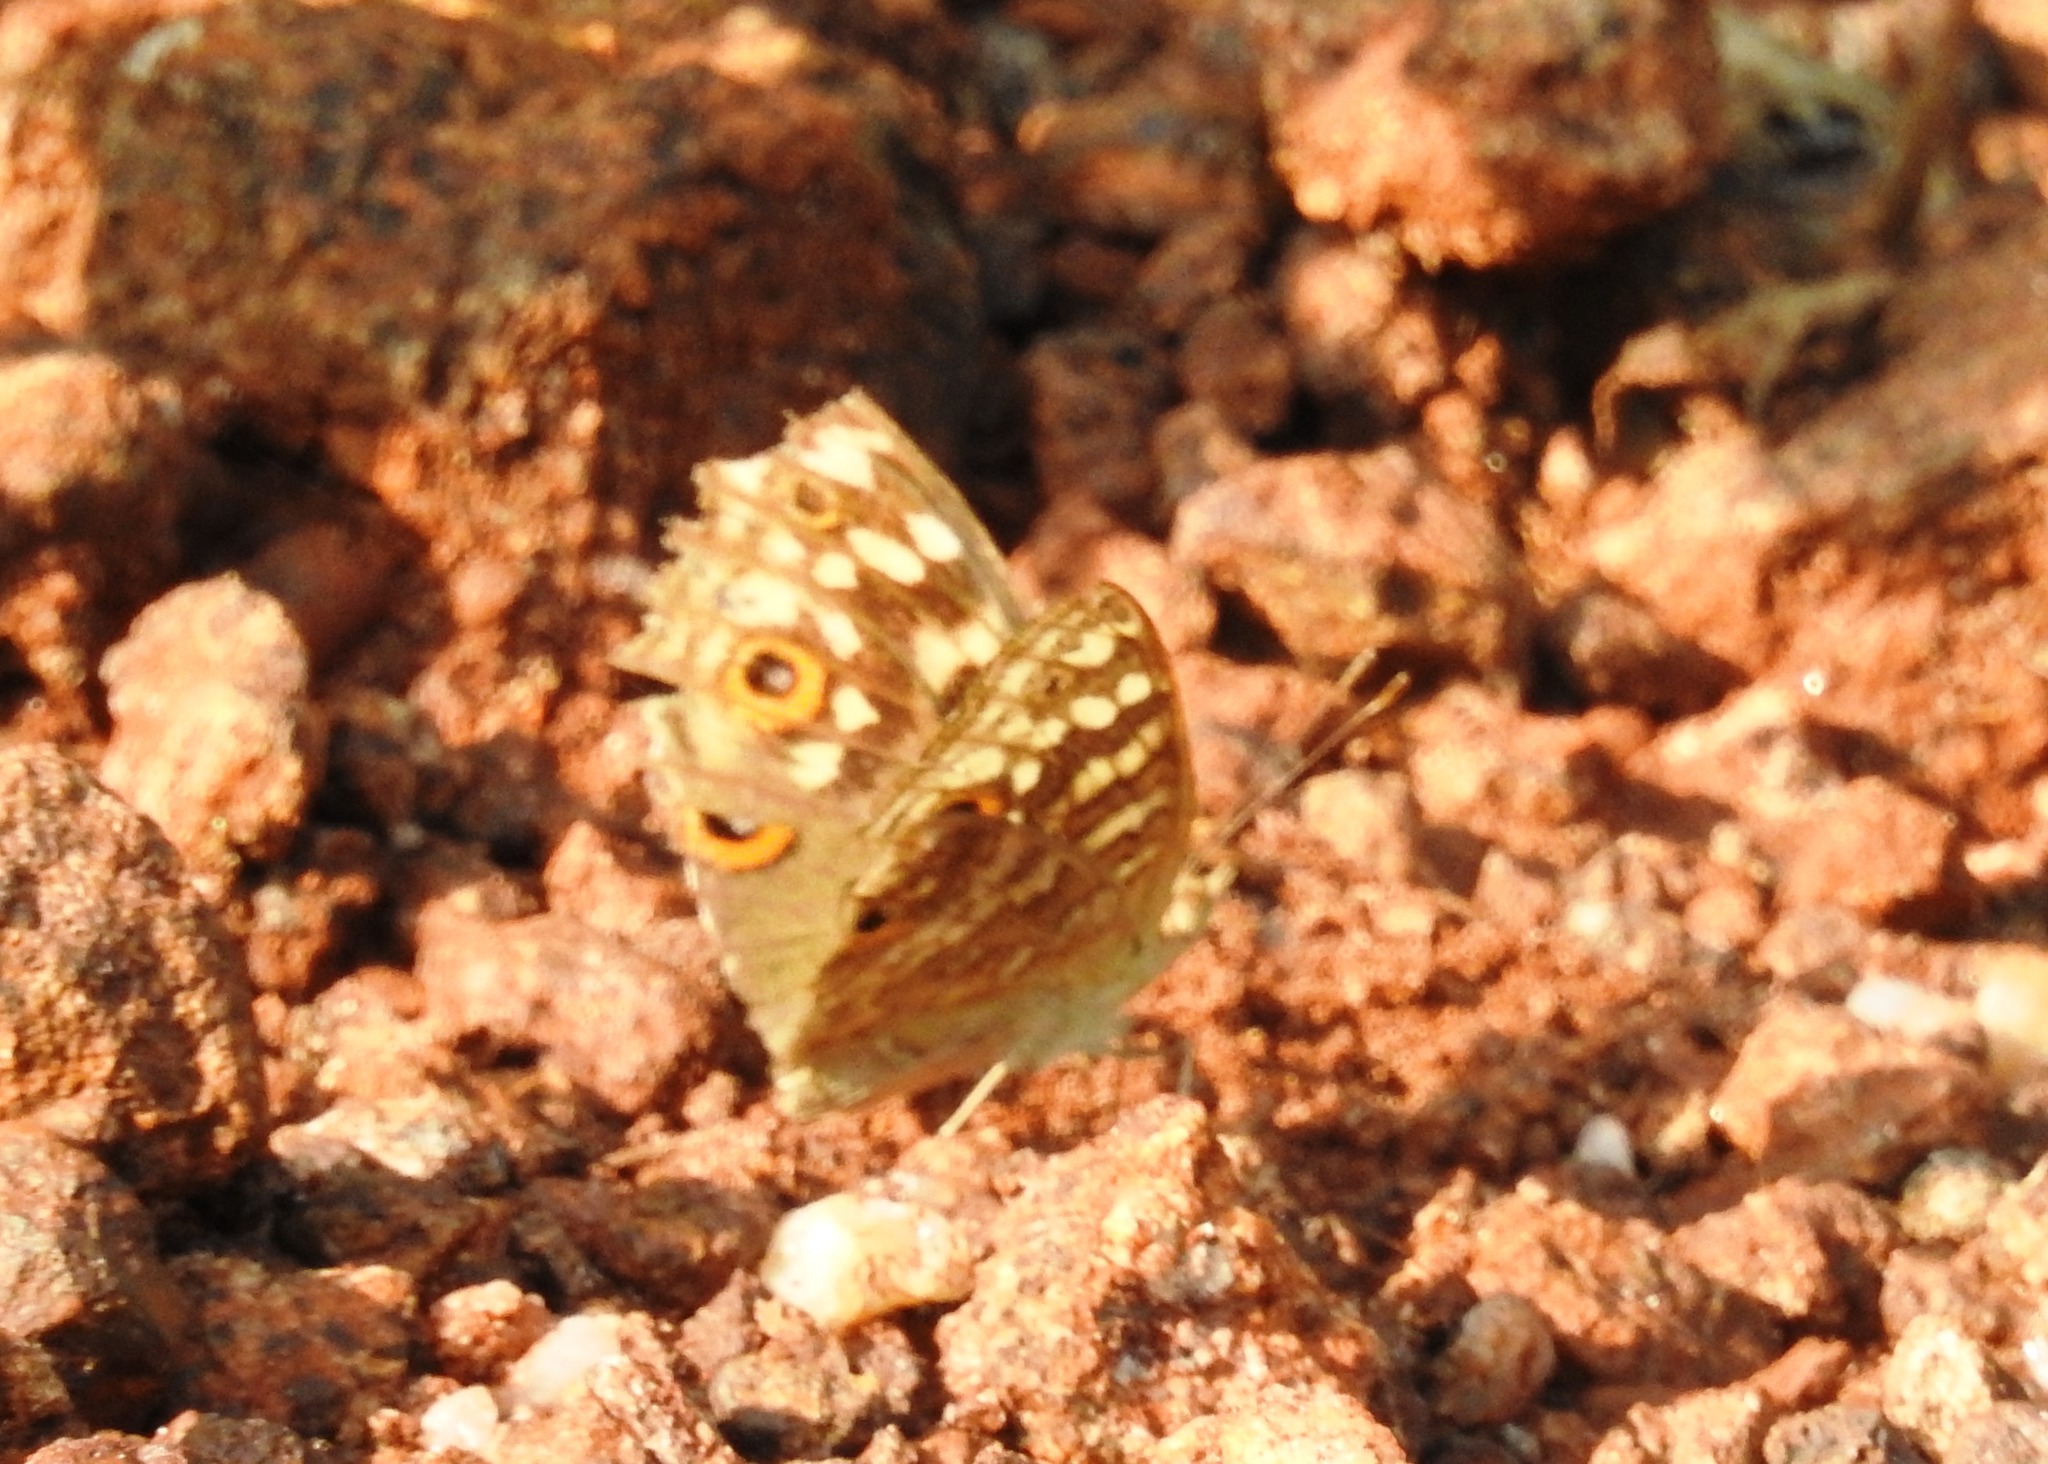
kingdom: Animalia
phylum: Arthropoda
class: Insecta
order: Lepidoptera
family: Nymphalidae
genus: Junonia
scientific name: Junonia lemonias
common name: Lemon pansy
